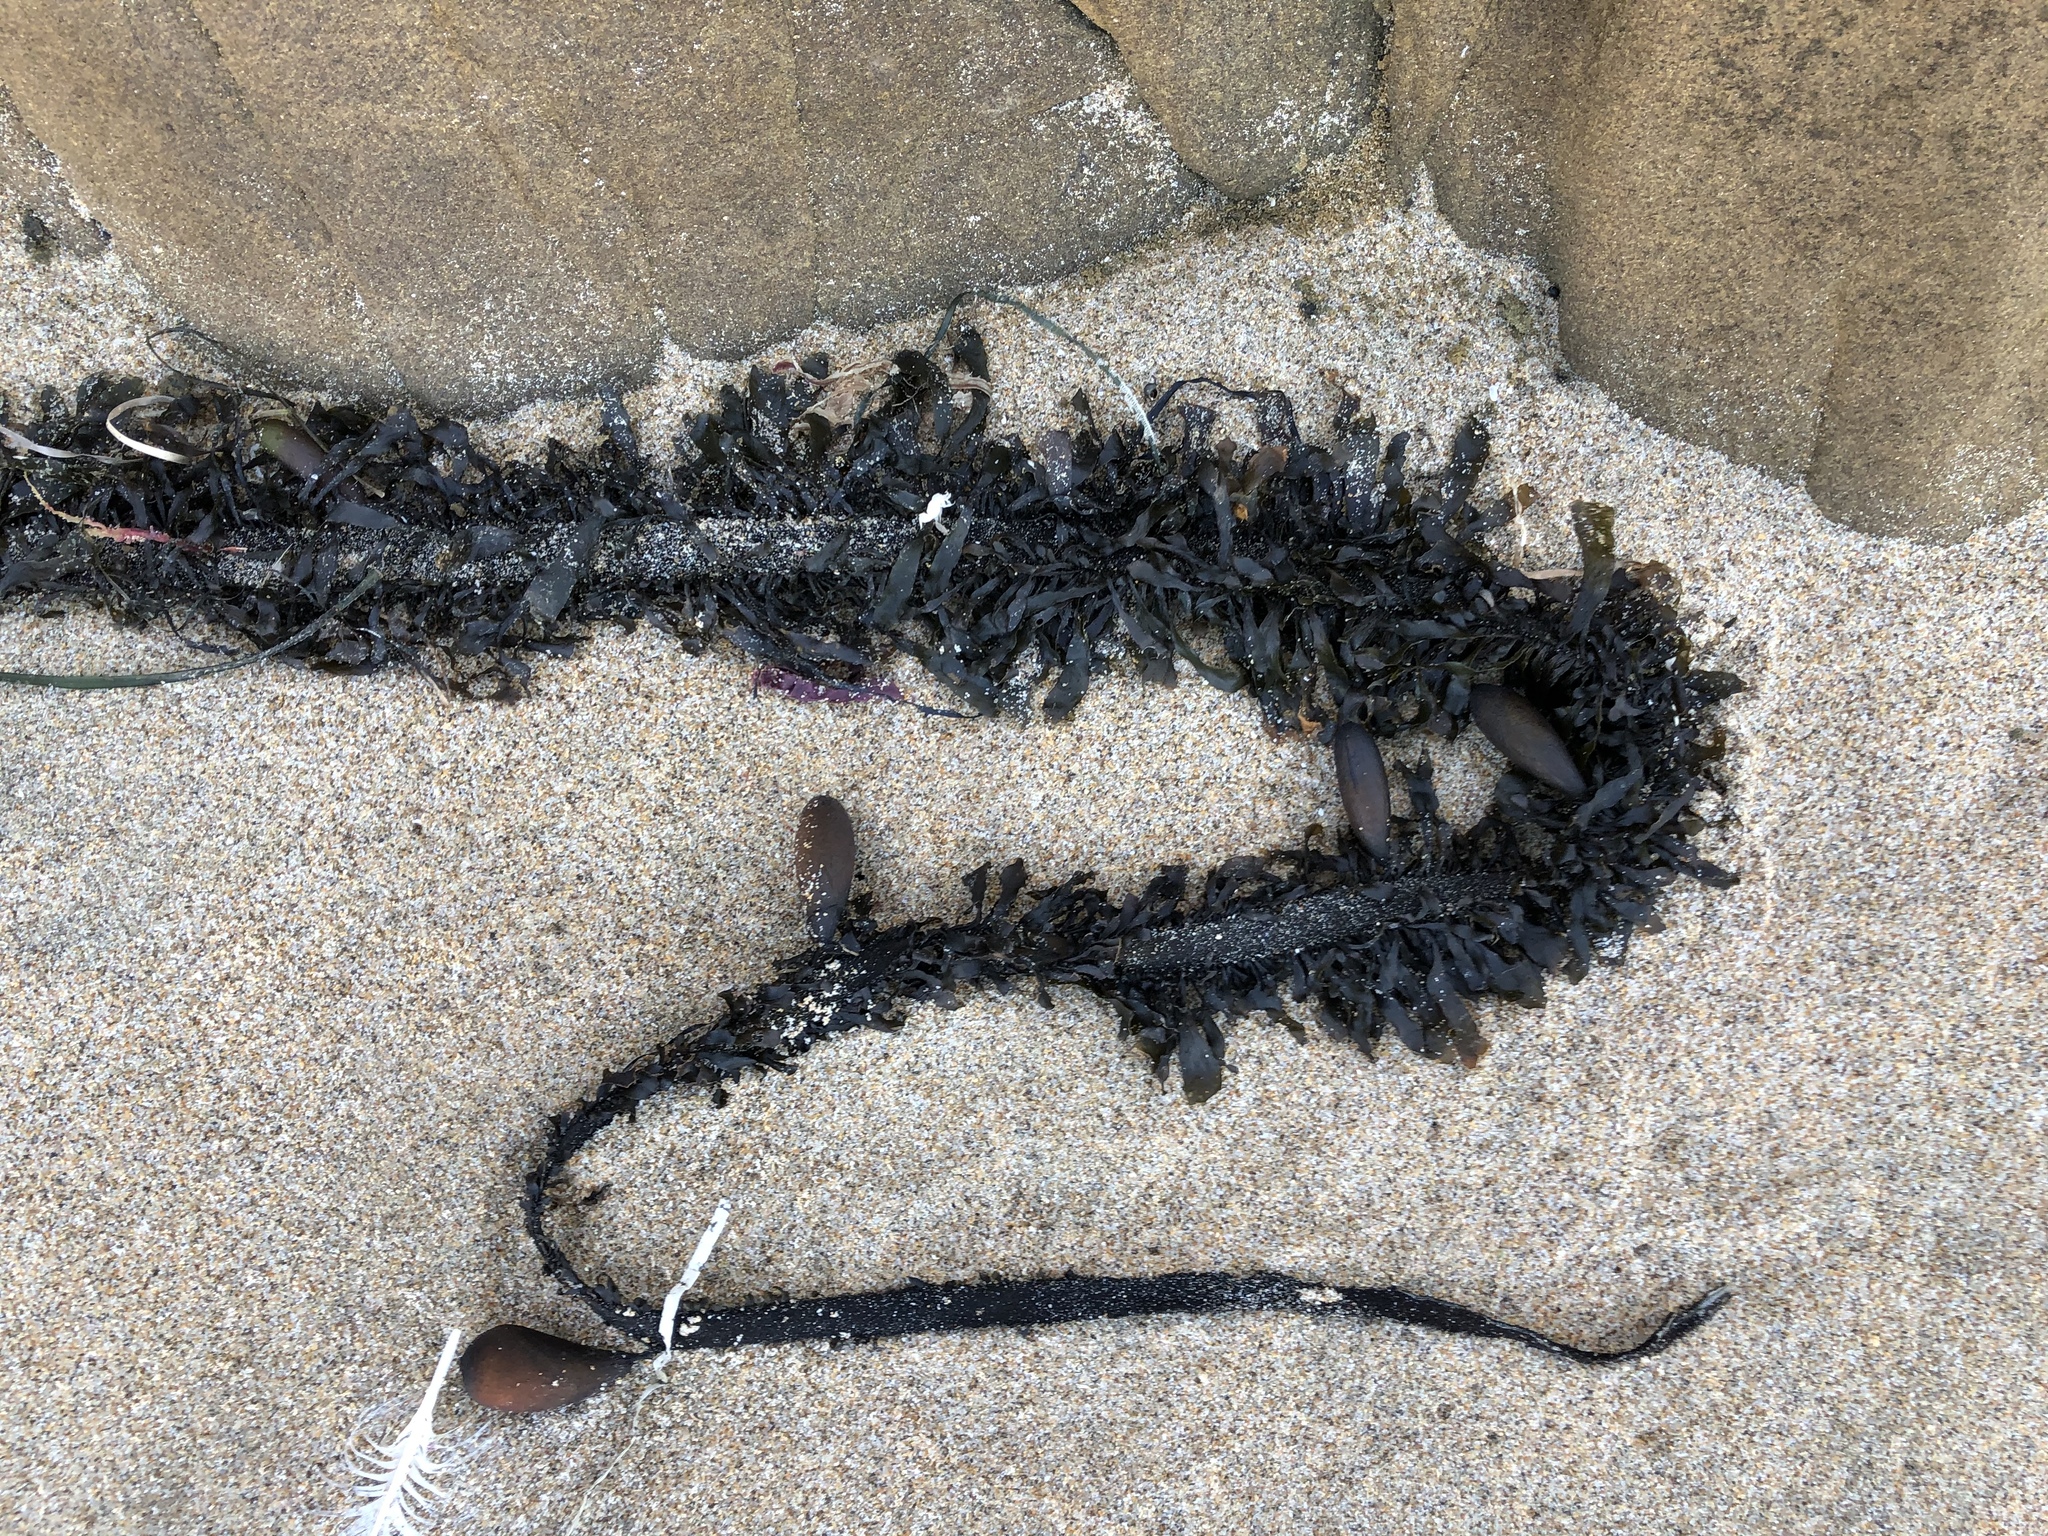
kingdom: Chromista
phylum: Ochrophyta
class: Phaeophyceae
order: Laminariales
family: Lessoniaceae
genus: Egregia
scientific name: Egregia menziesii
